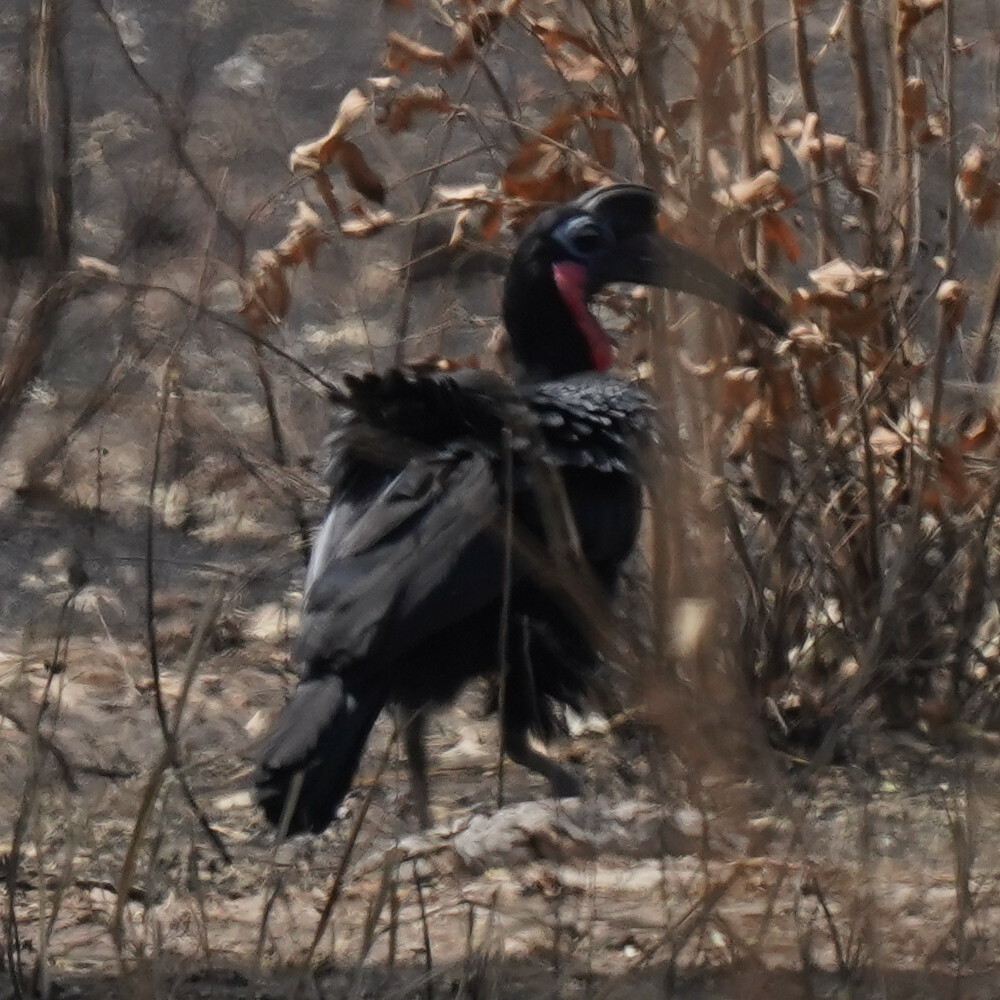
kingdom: Animalia
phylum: Chordata
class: Aves
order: Bucerotiformes
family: Bucorvidae
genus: Bucorvus
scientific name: Bucorvus abyssinicus
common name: Abyssinian ground hornbill
